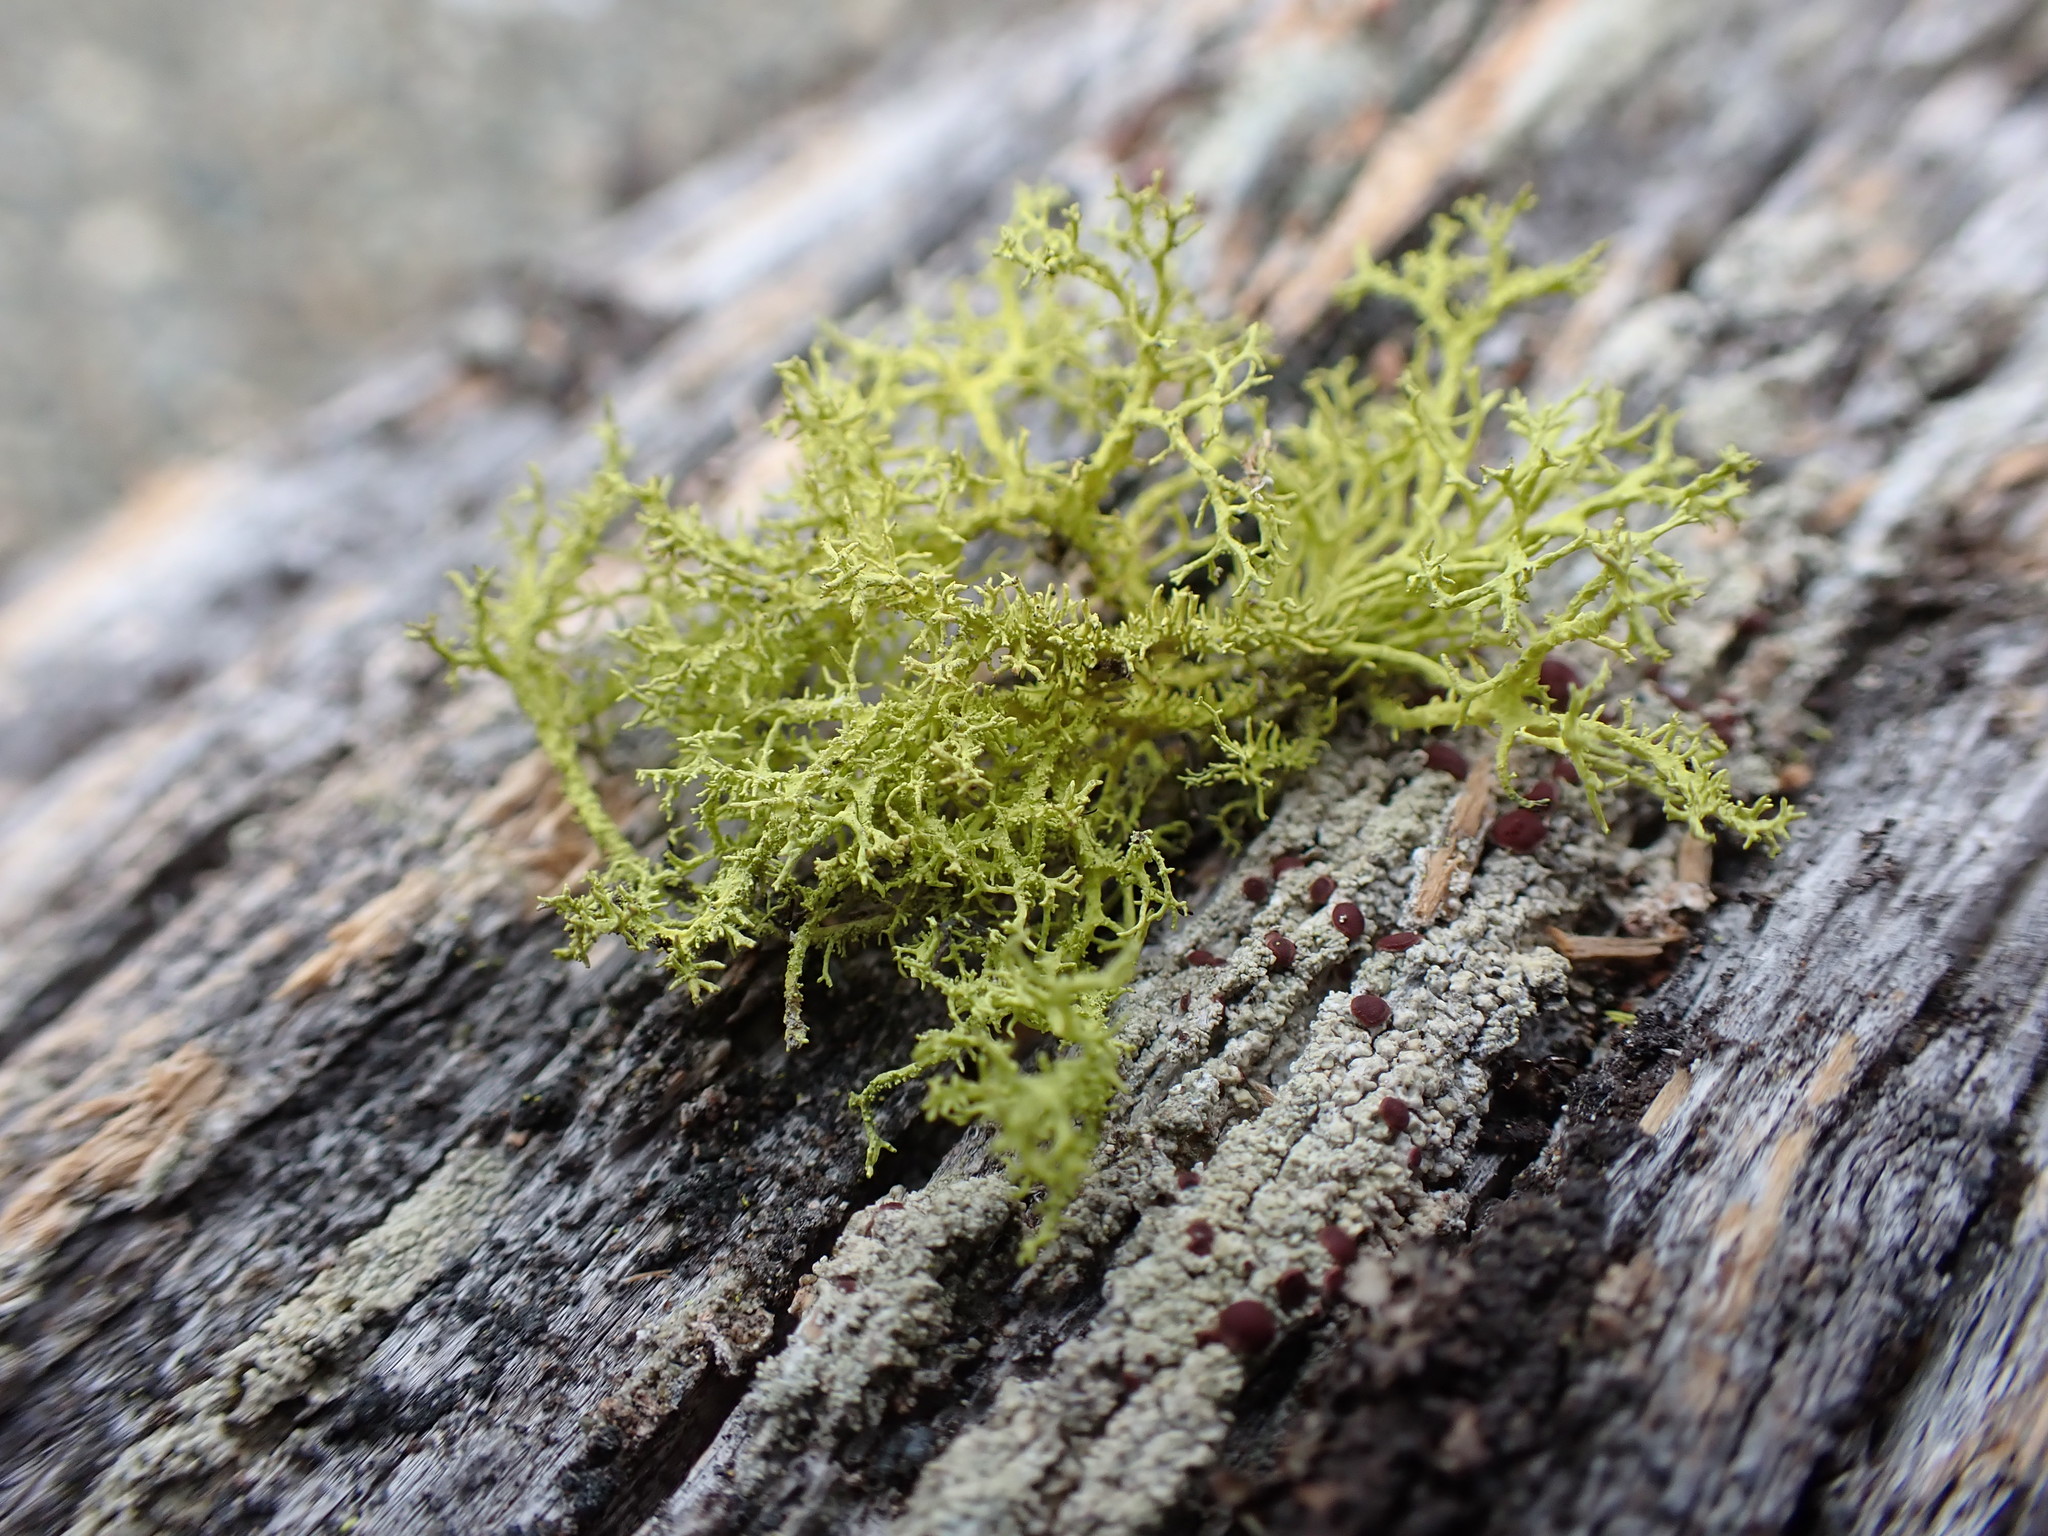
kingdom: Fungi
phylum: Ascomycota
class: Lecanoromycetes
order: Lecanorales
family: Parmeliaceae
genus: Letharia
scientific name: Letharia vulpina
